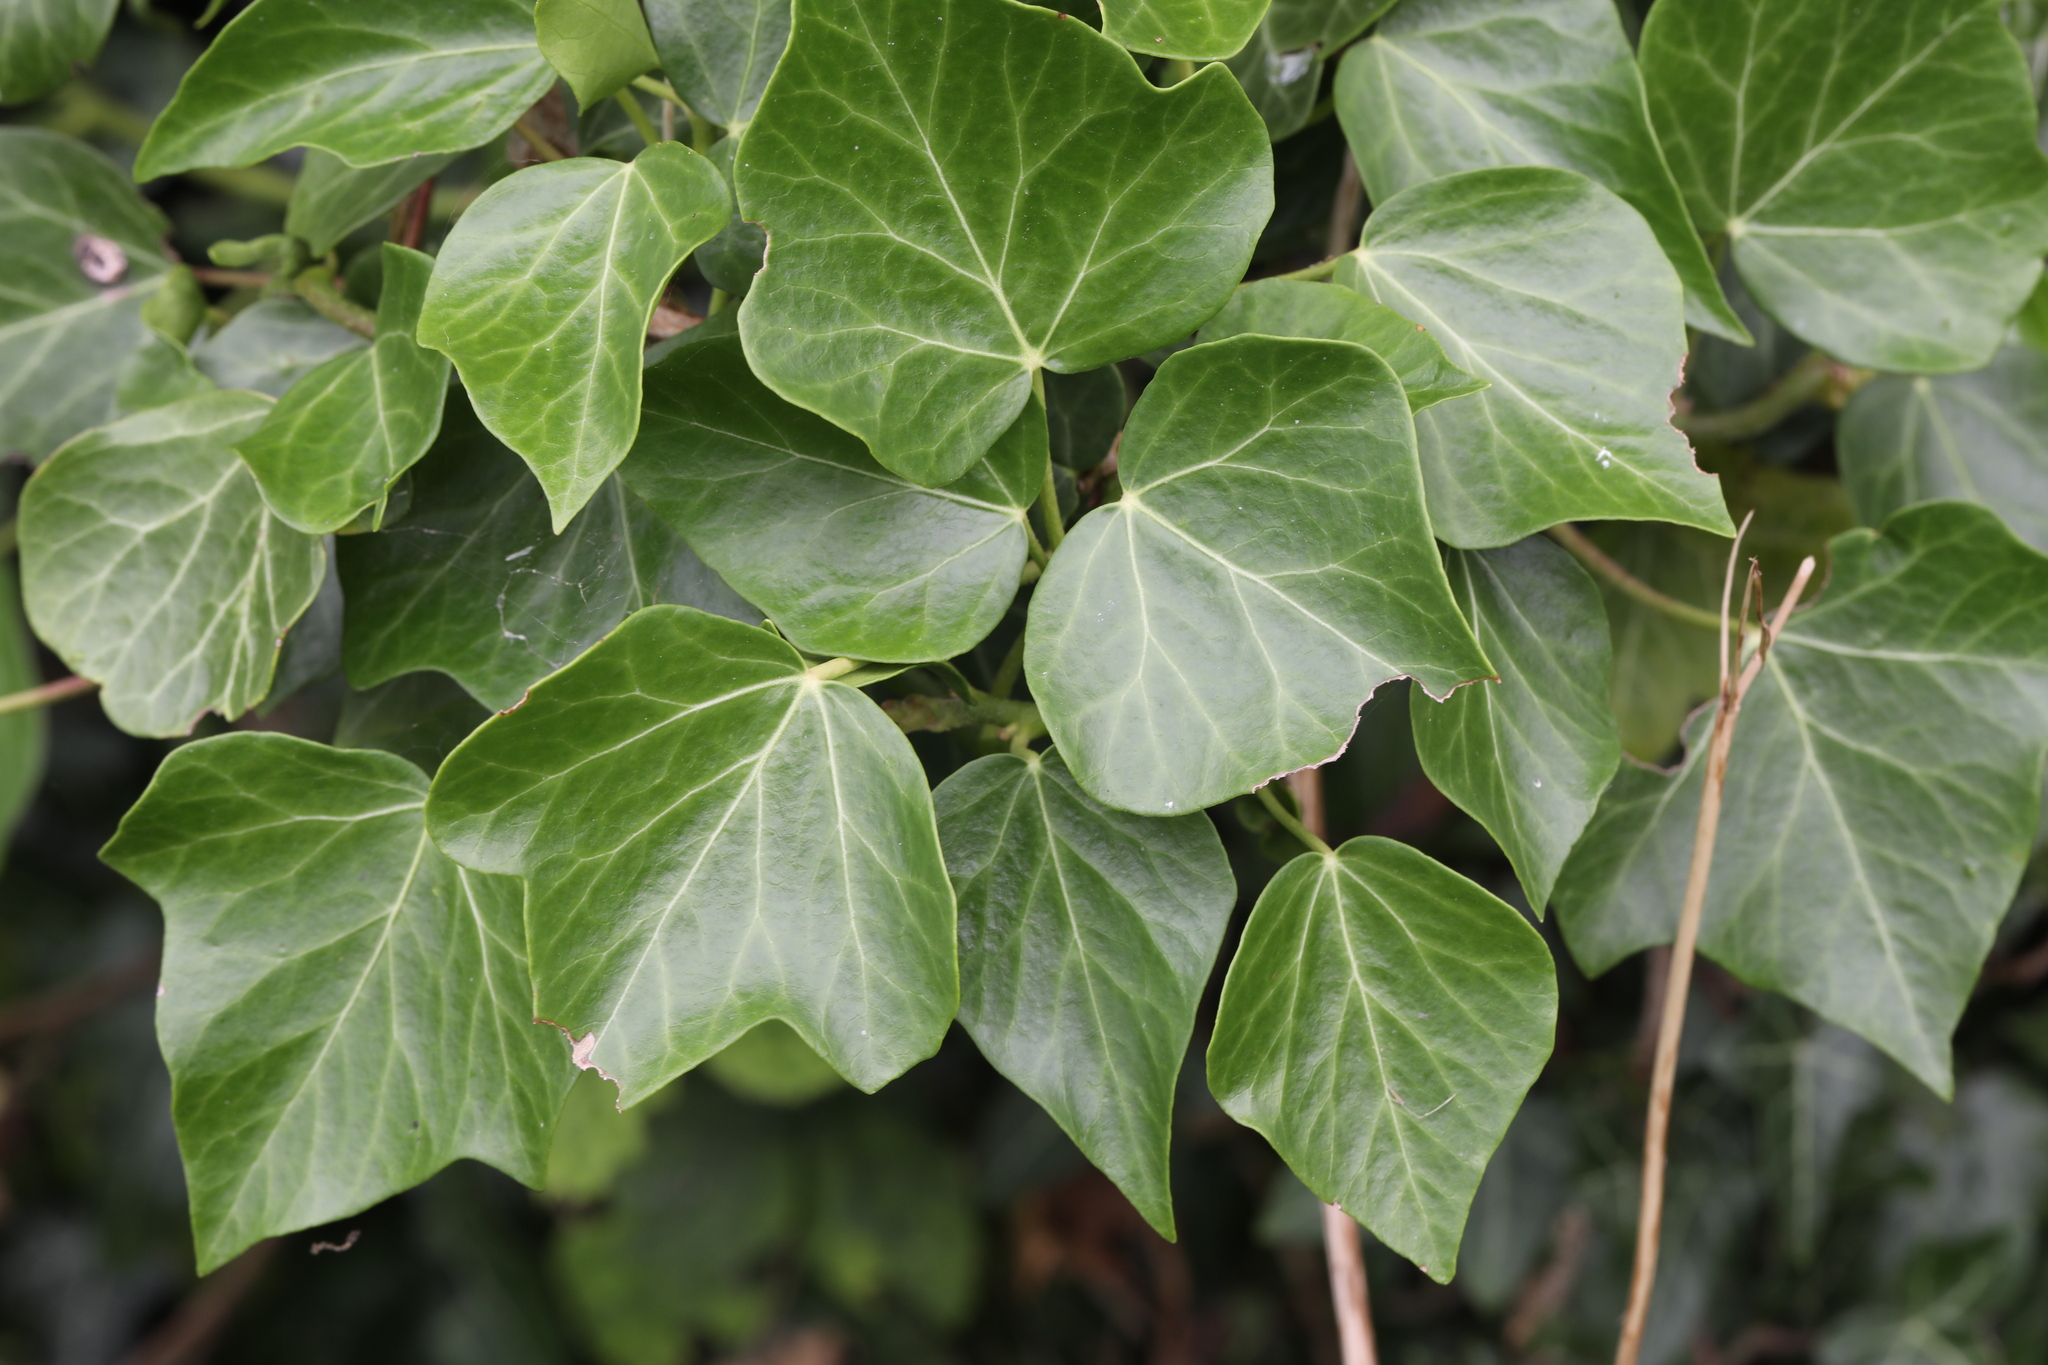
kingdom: Plantae
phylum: Tracheophyta
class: Magnoliopsida
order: Apiales
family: Araliaceae
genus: Hedera
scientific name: Hedera helix
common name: Ivy
